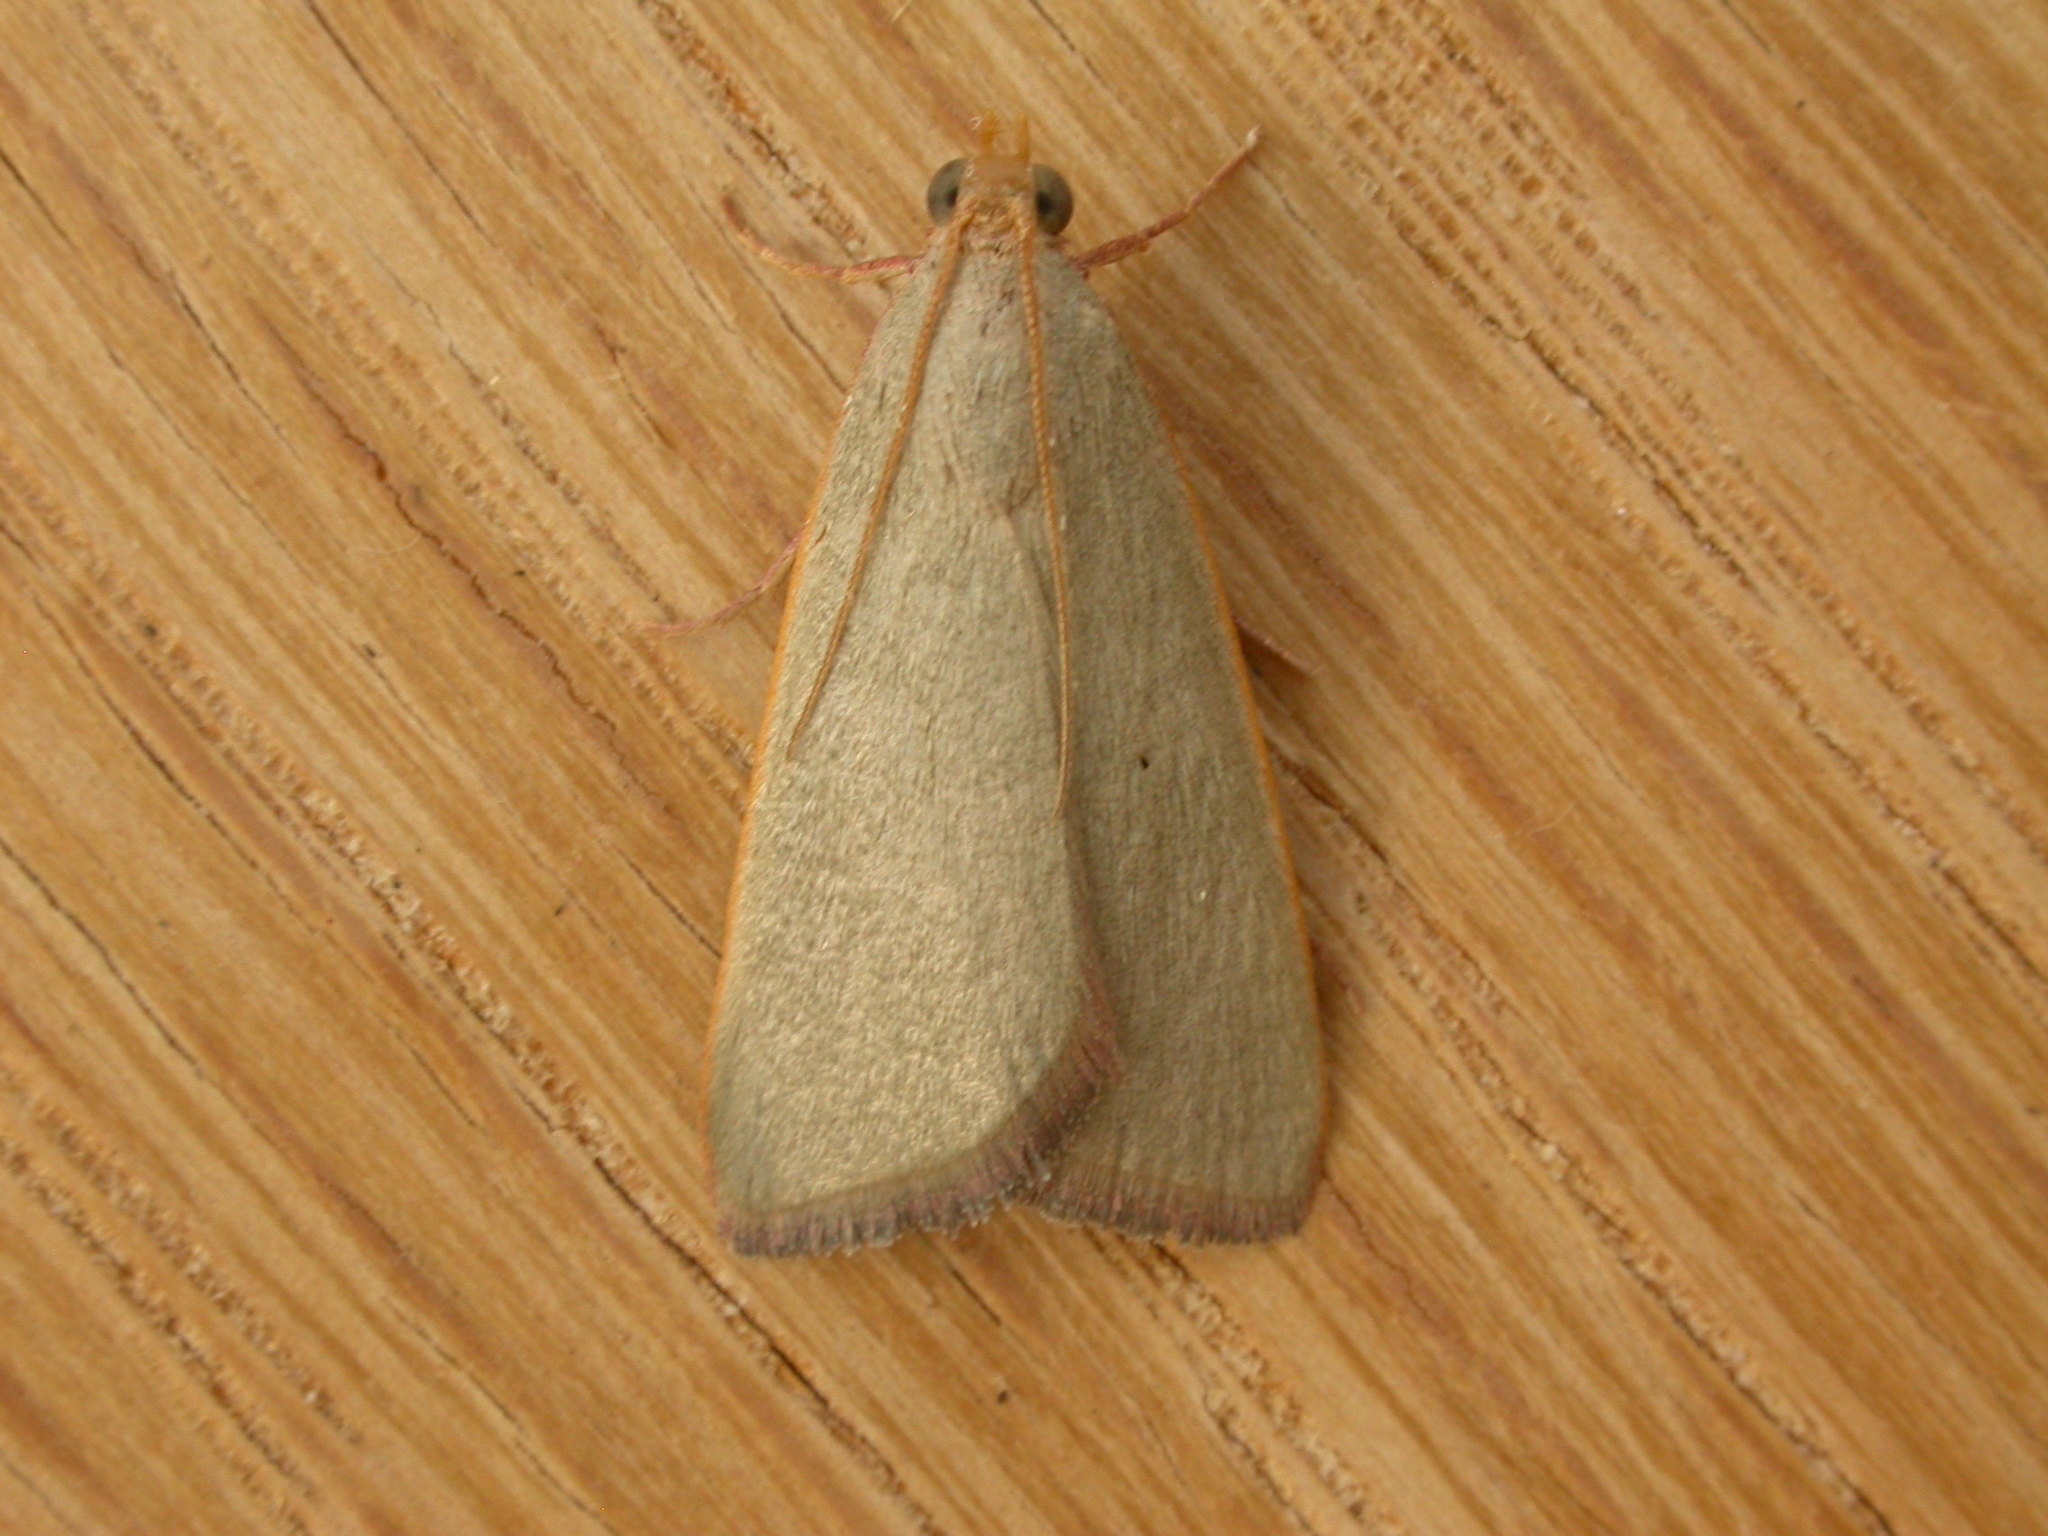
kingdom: Animalia
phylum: Arthropoda
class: Insecta
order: Lepidoptera
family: Pyralidae
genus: Hypsopygia
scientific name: Hypsopygia
